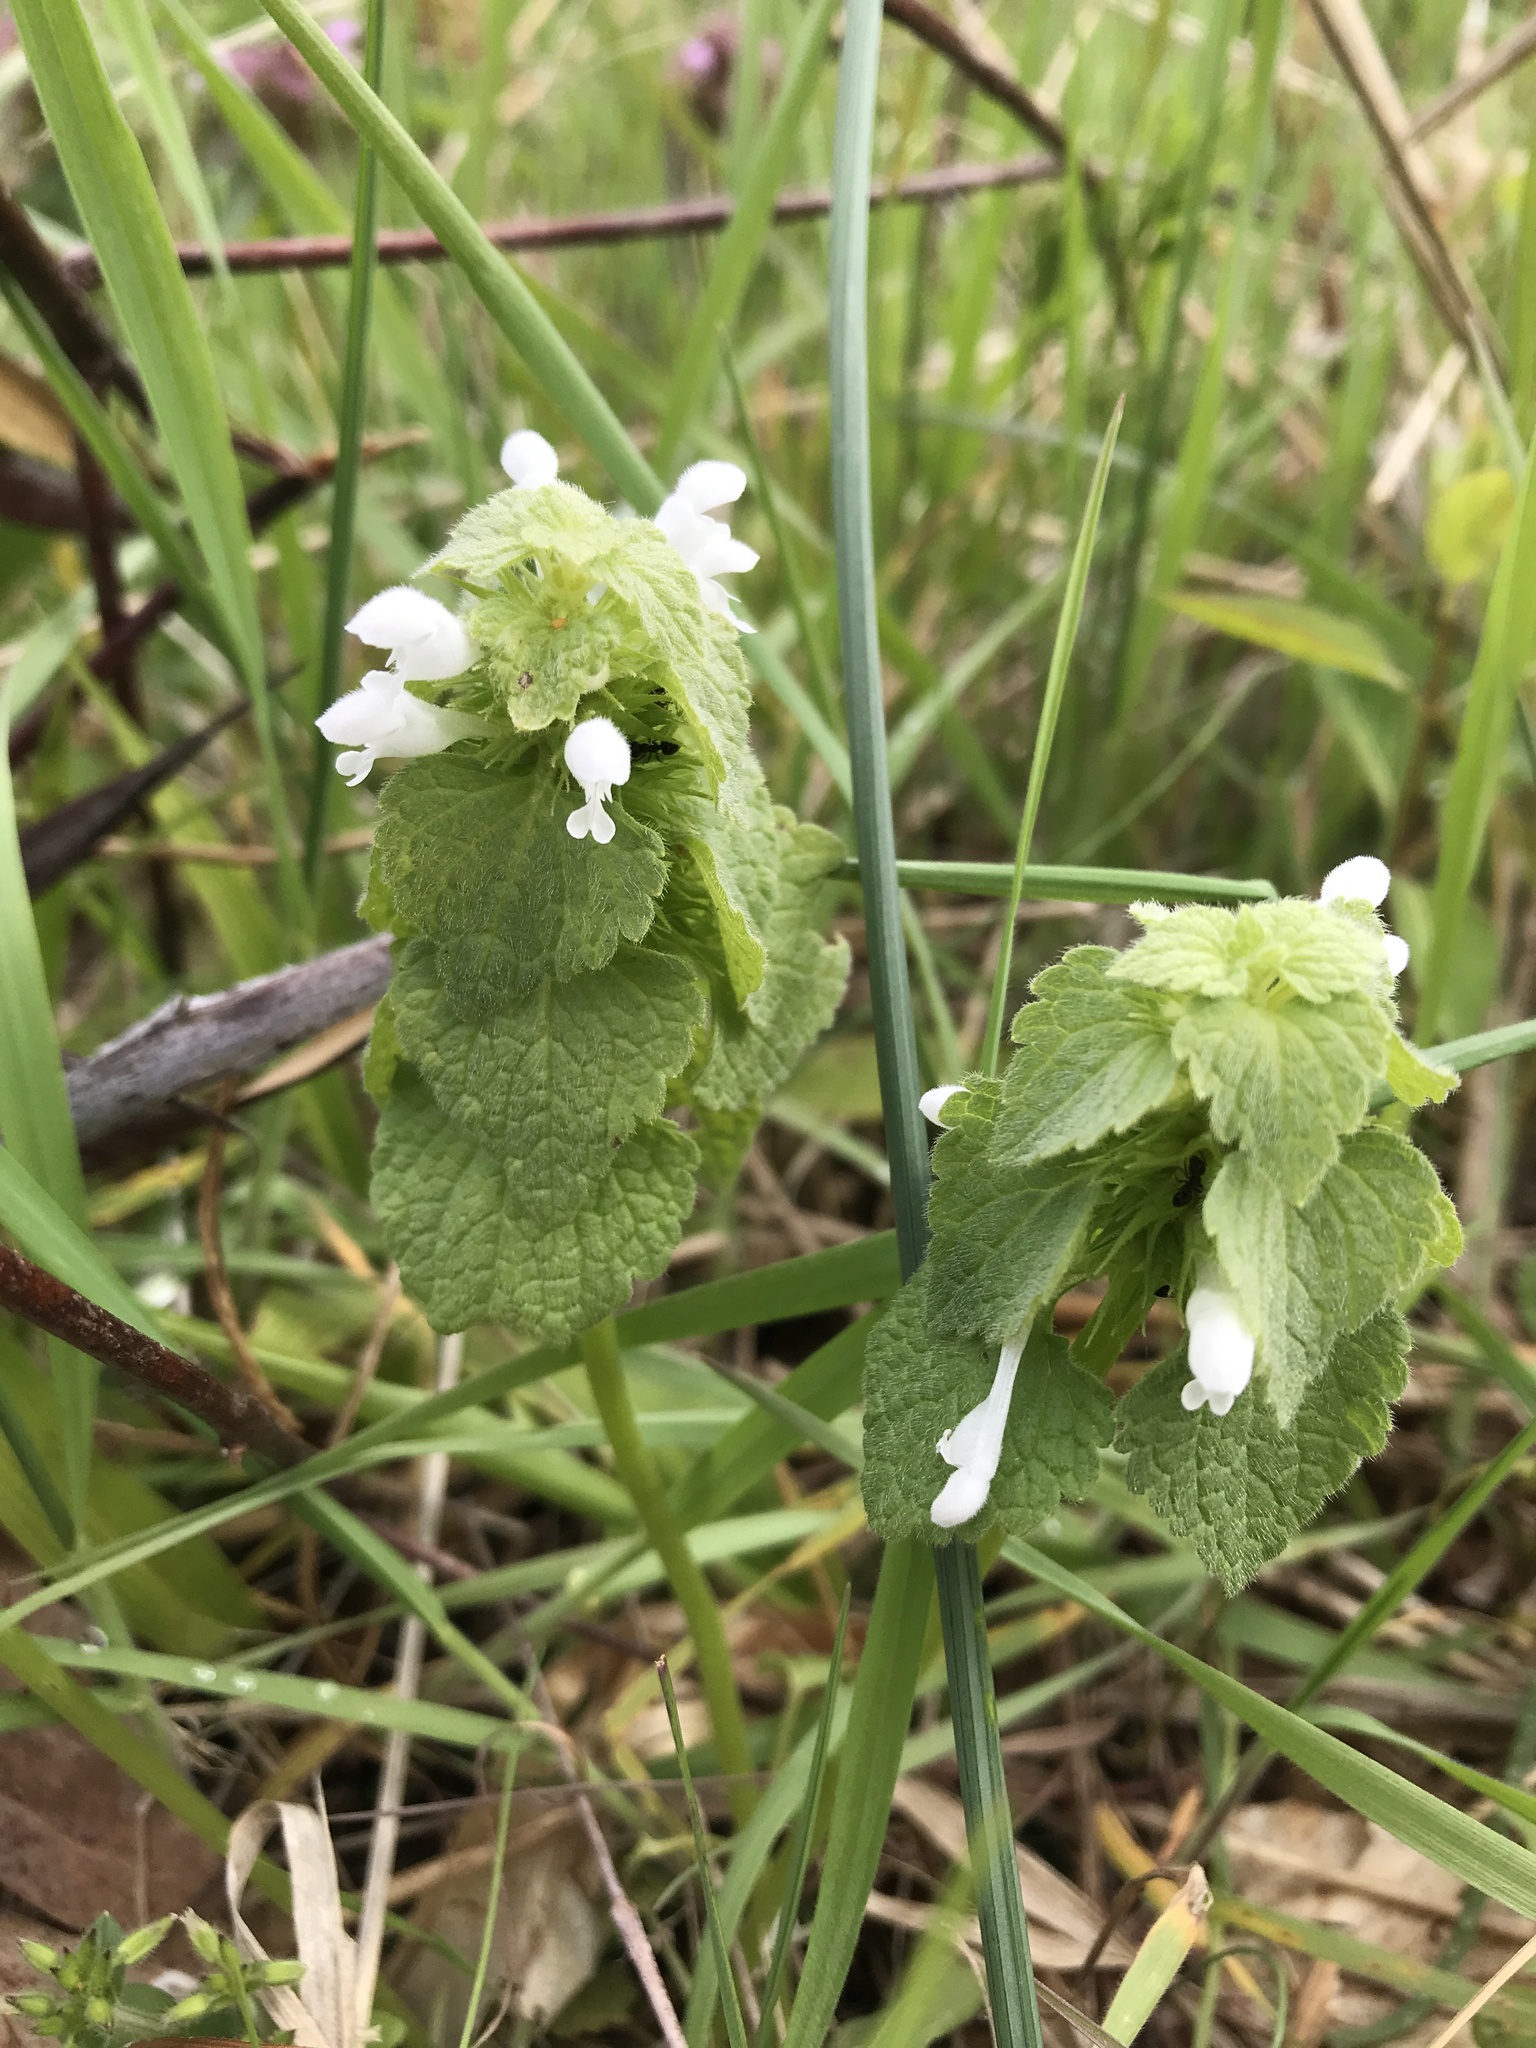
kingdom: Plantae
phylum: Tracheophyta
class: Magnoliopsida
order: Lamiales
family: Lamiaceae
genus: Lamium
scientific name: Lamium purpureum
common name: Red dead-nettle
